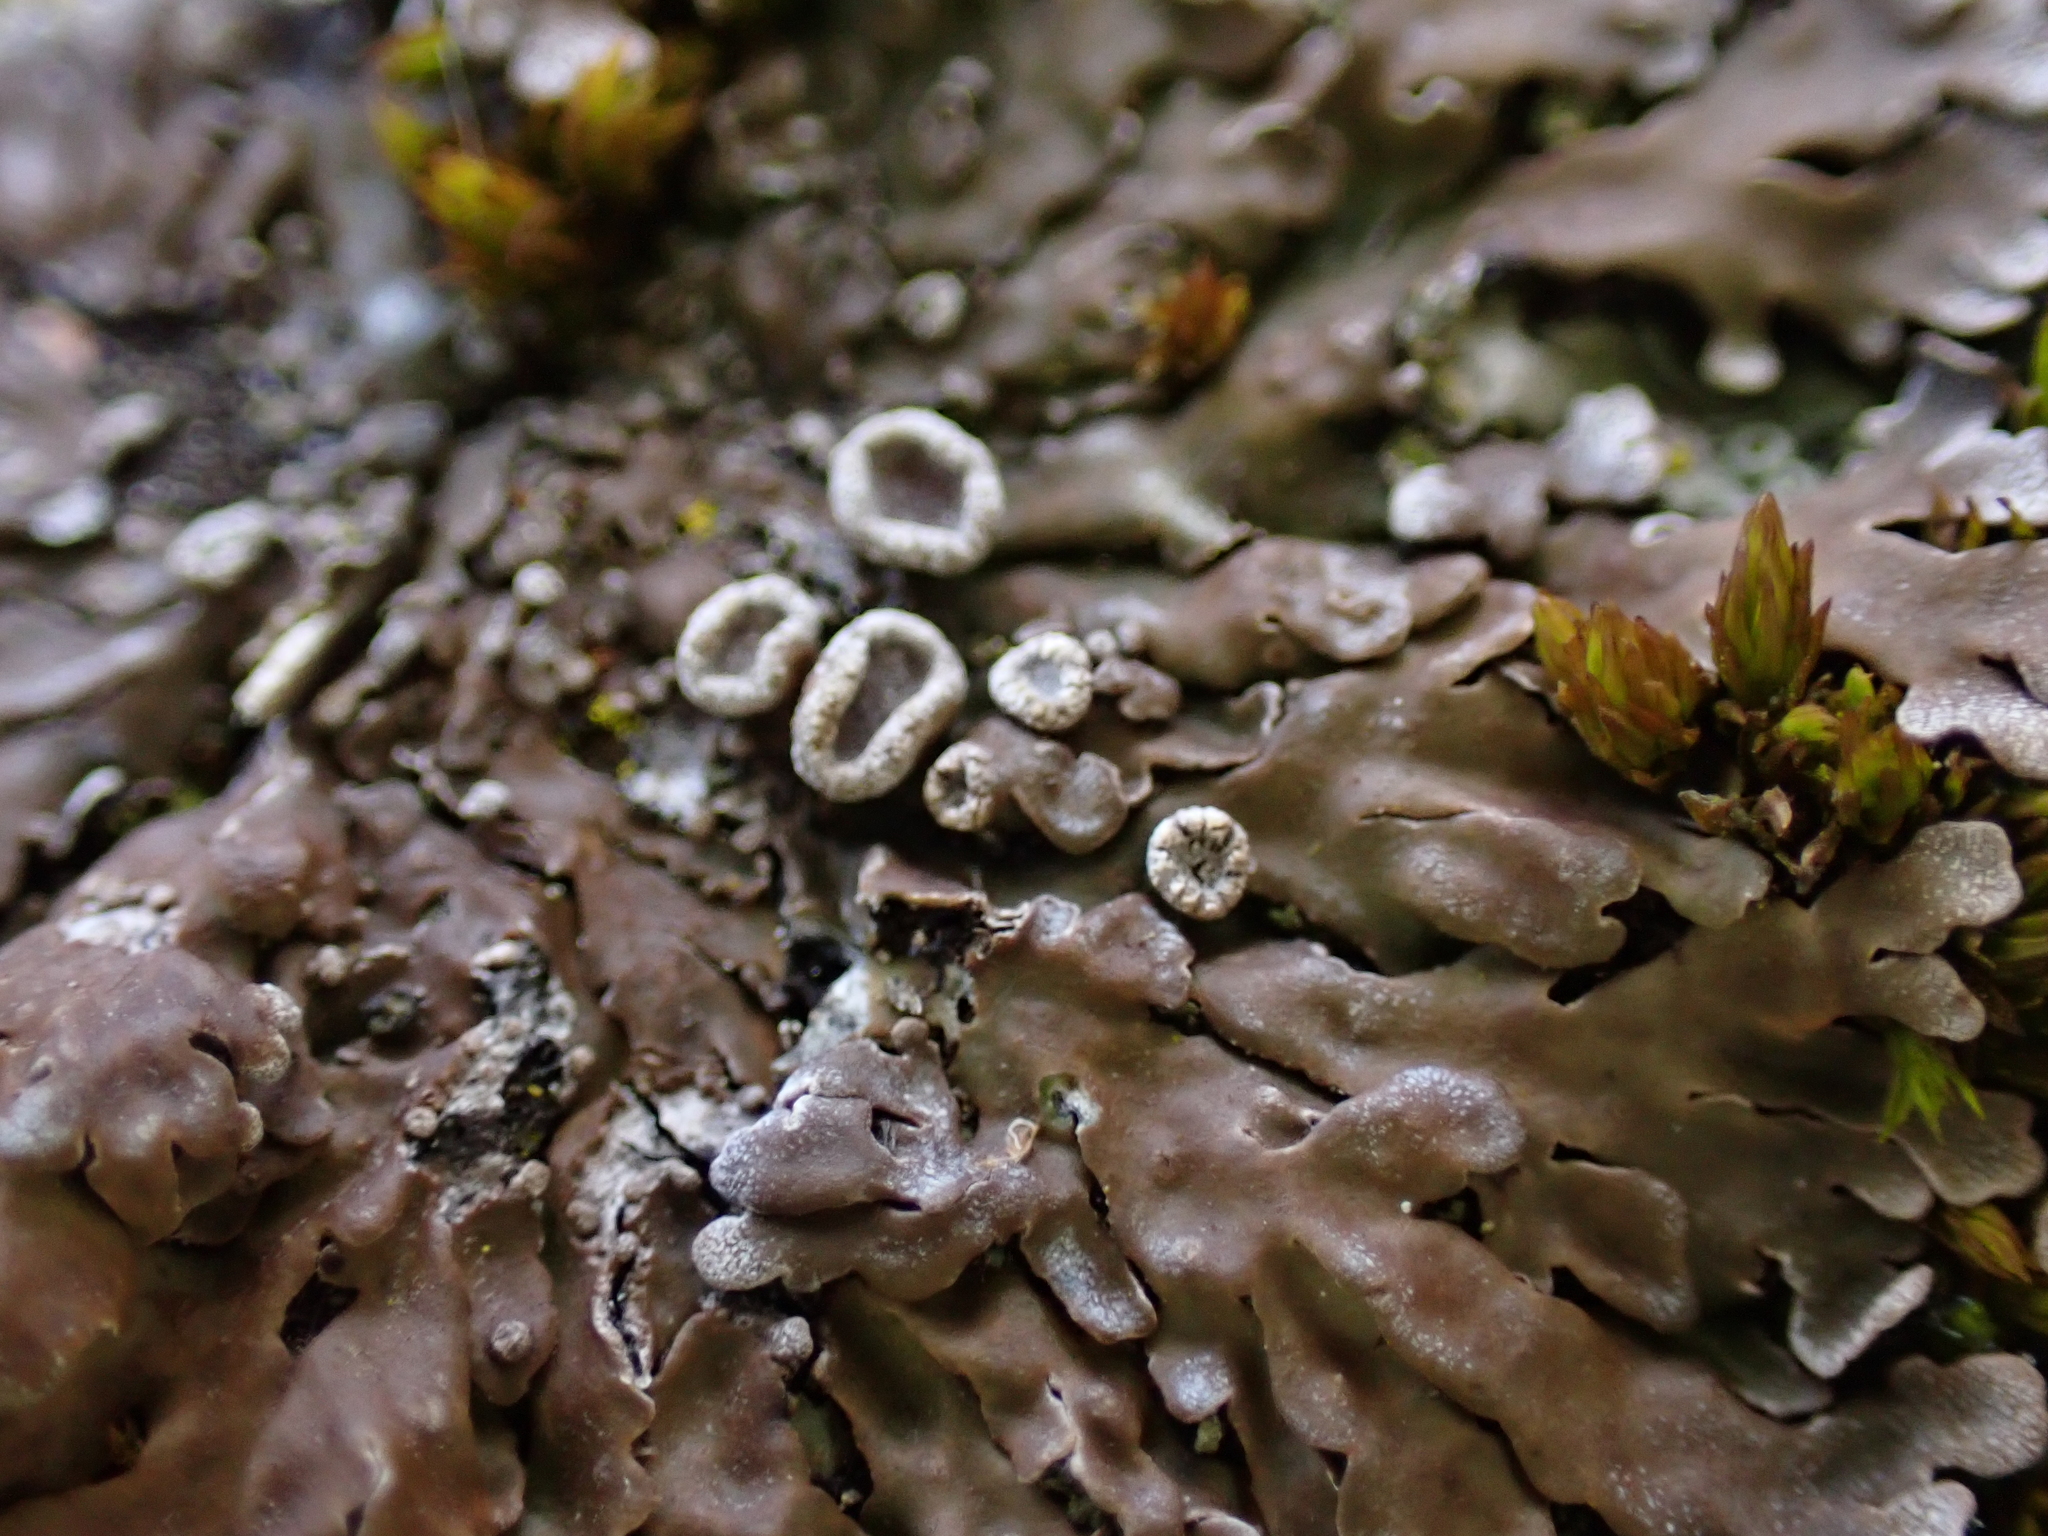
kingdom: Fungi
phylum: Ascomycota
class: Lecanoromycetes
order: Caliciales
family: Physciaceae
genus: Physconia
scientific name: Physconia distorta
